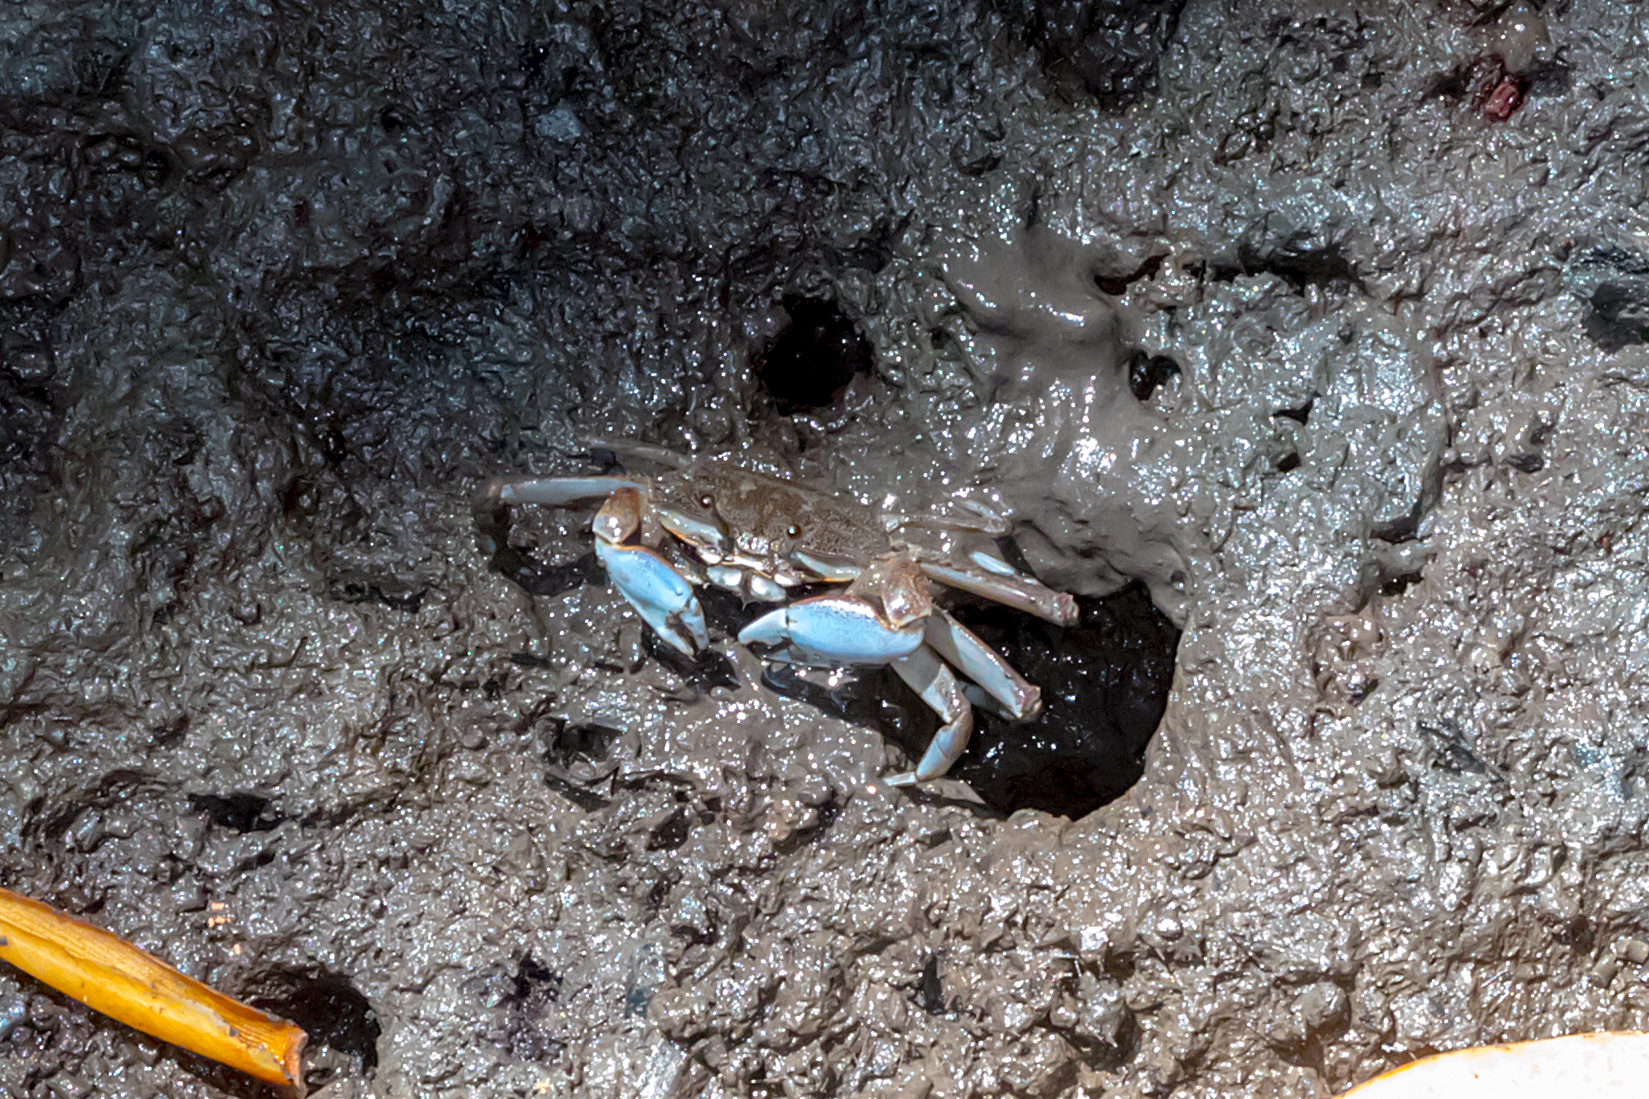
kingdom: Animalia
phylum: Arthropoda
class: Malacostraca
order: Decapoda
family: Macrophthalmidae
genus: Macrophthalmus
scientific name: Macrophthalmus pacificus
